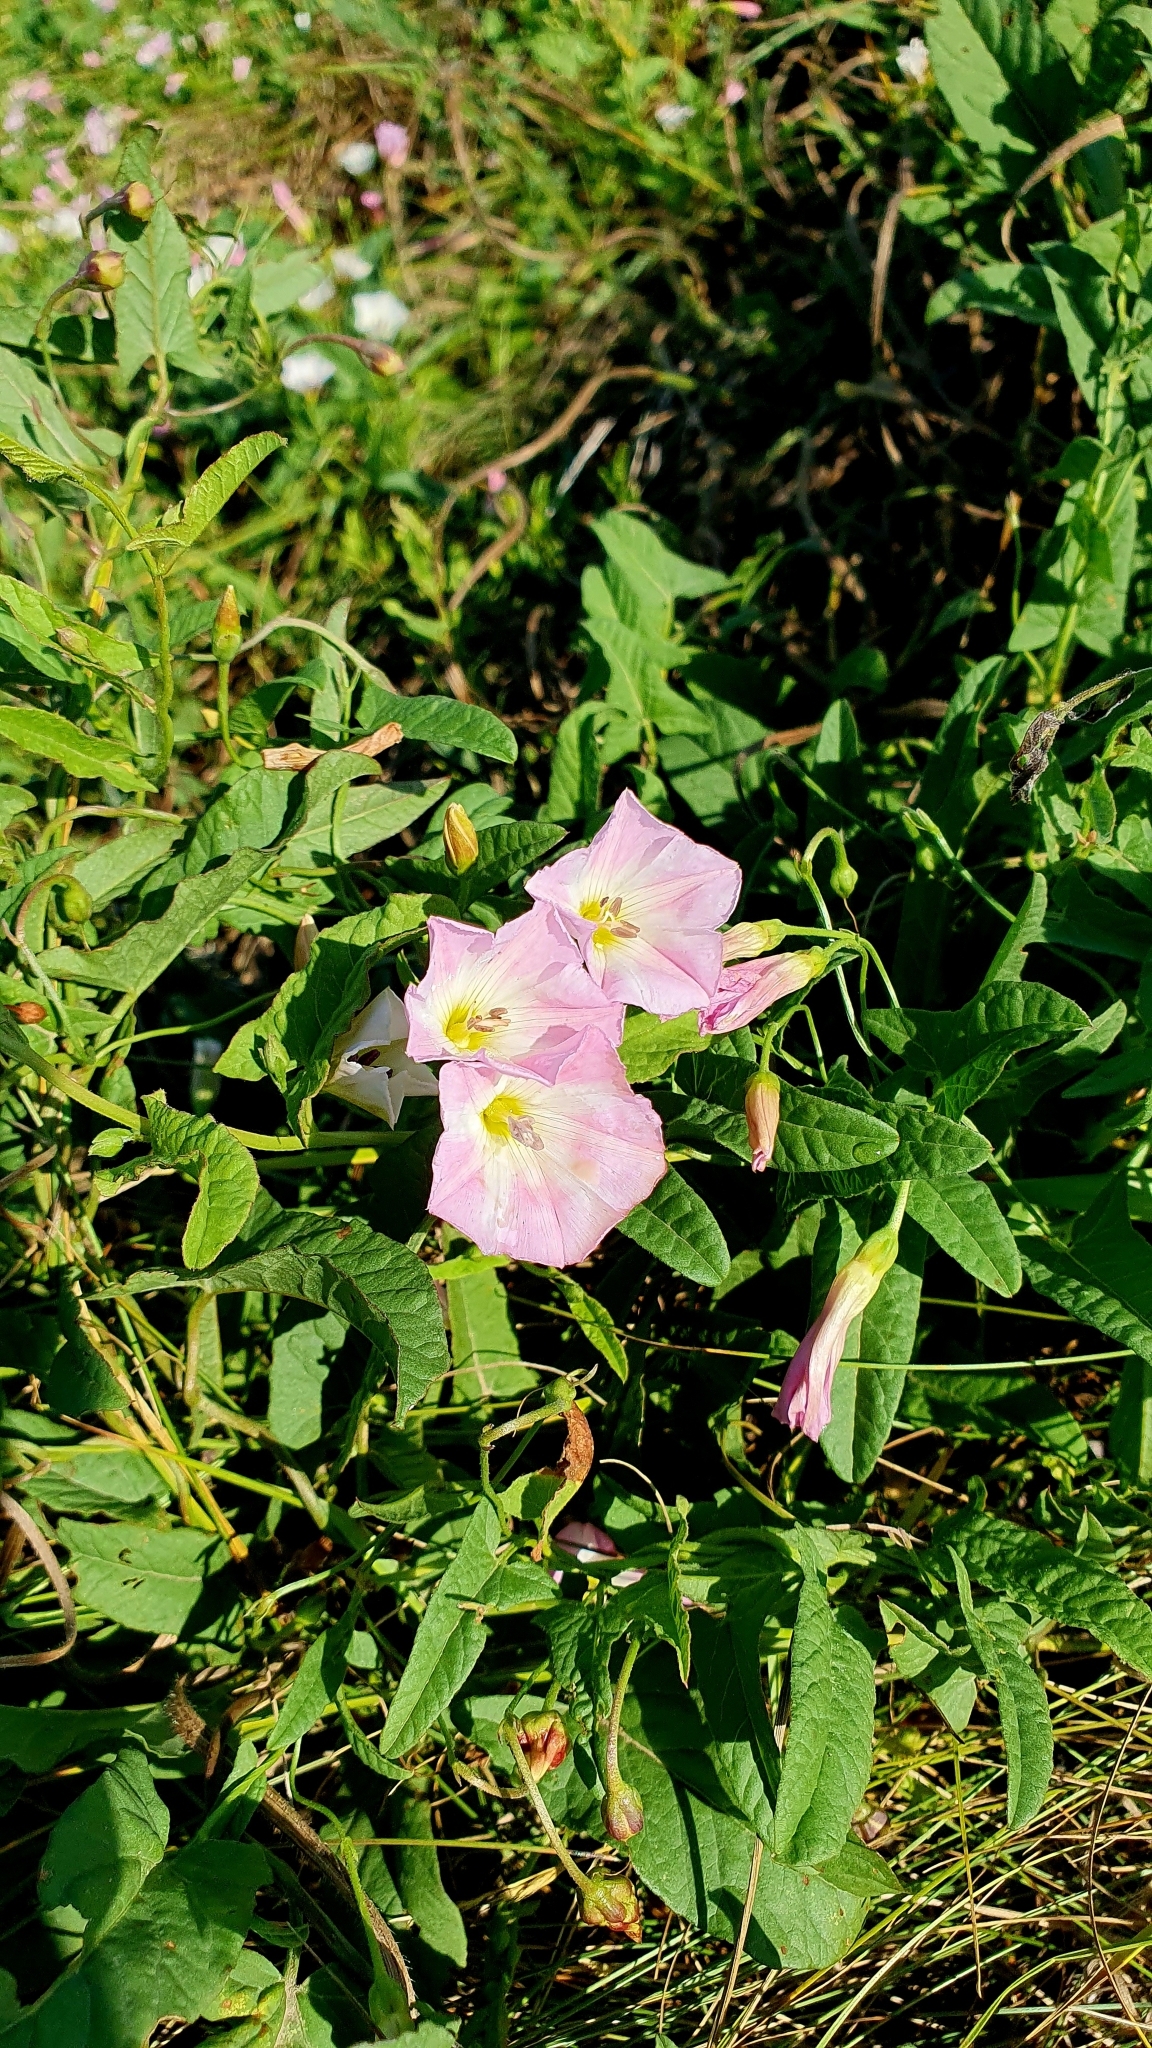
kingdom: Plantae
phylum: Tracheophyta
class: Magnoliopsida
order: Solanales
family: Convolvulaceae
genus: Convolvulus
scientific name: Convolvulus arvensis
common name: Field bindweed
